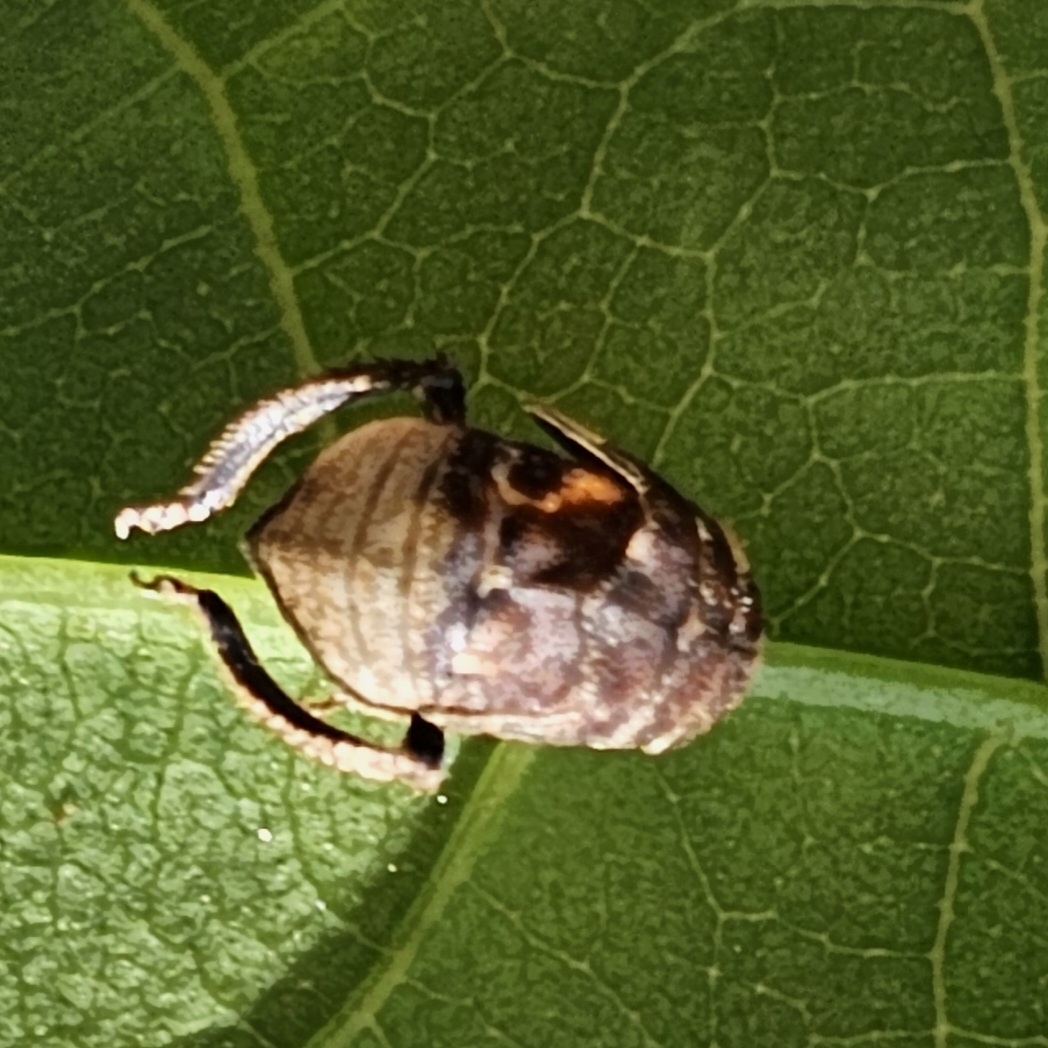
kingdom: Animalia
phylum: Arthropoda
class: Insecta
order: Hemiptera
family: Cicadellidae
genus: Penthimia
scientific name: Penthimia americana
